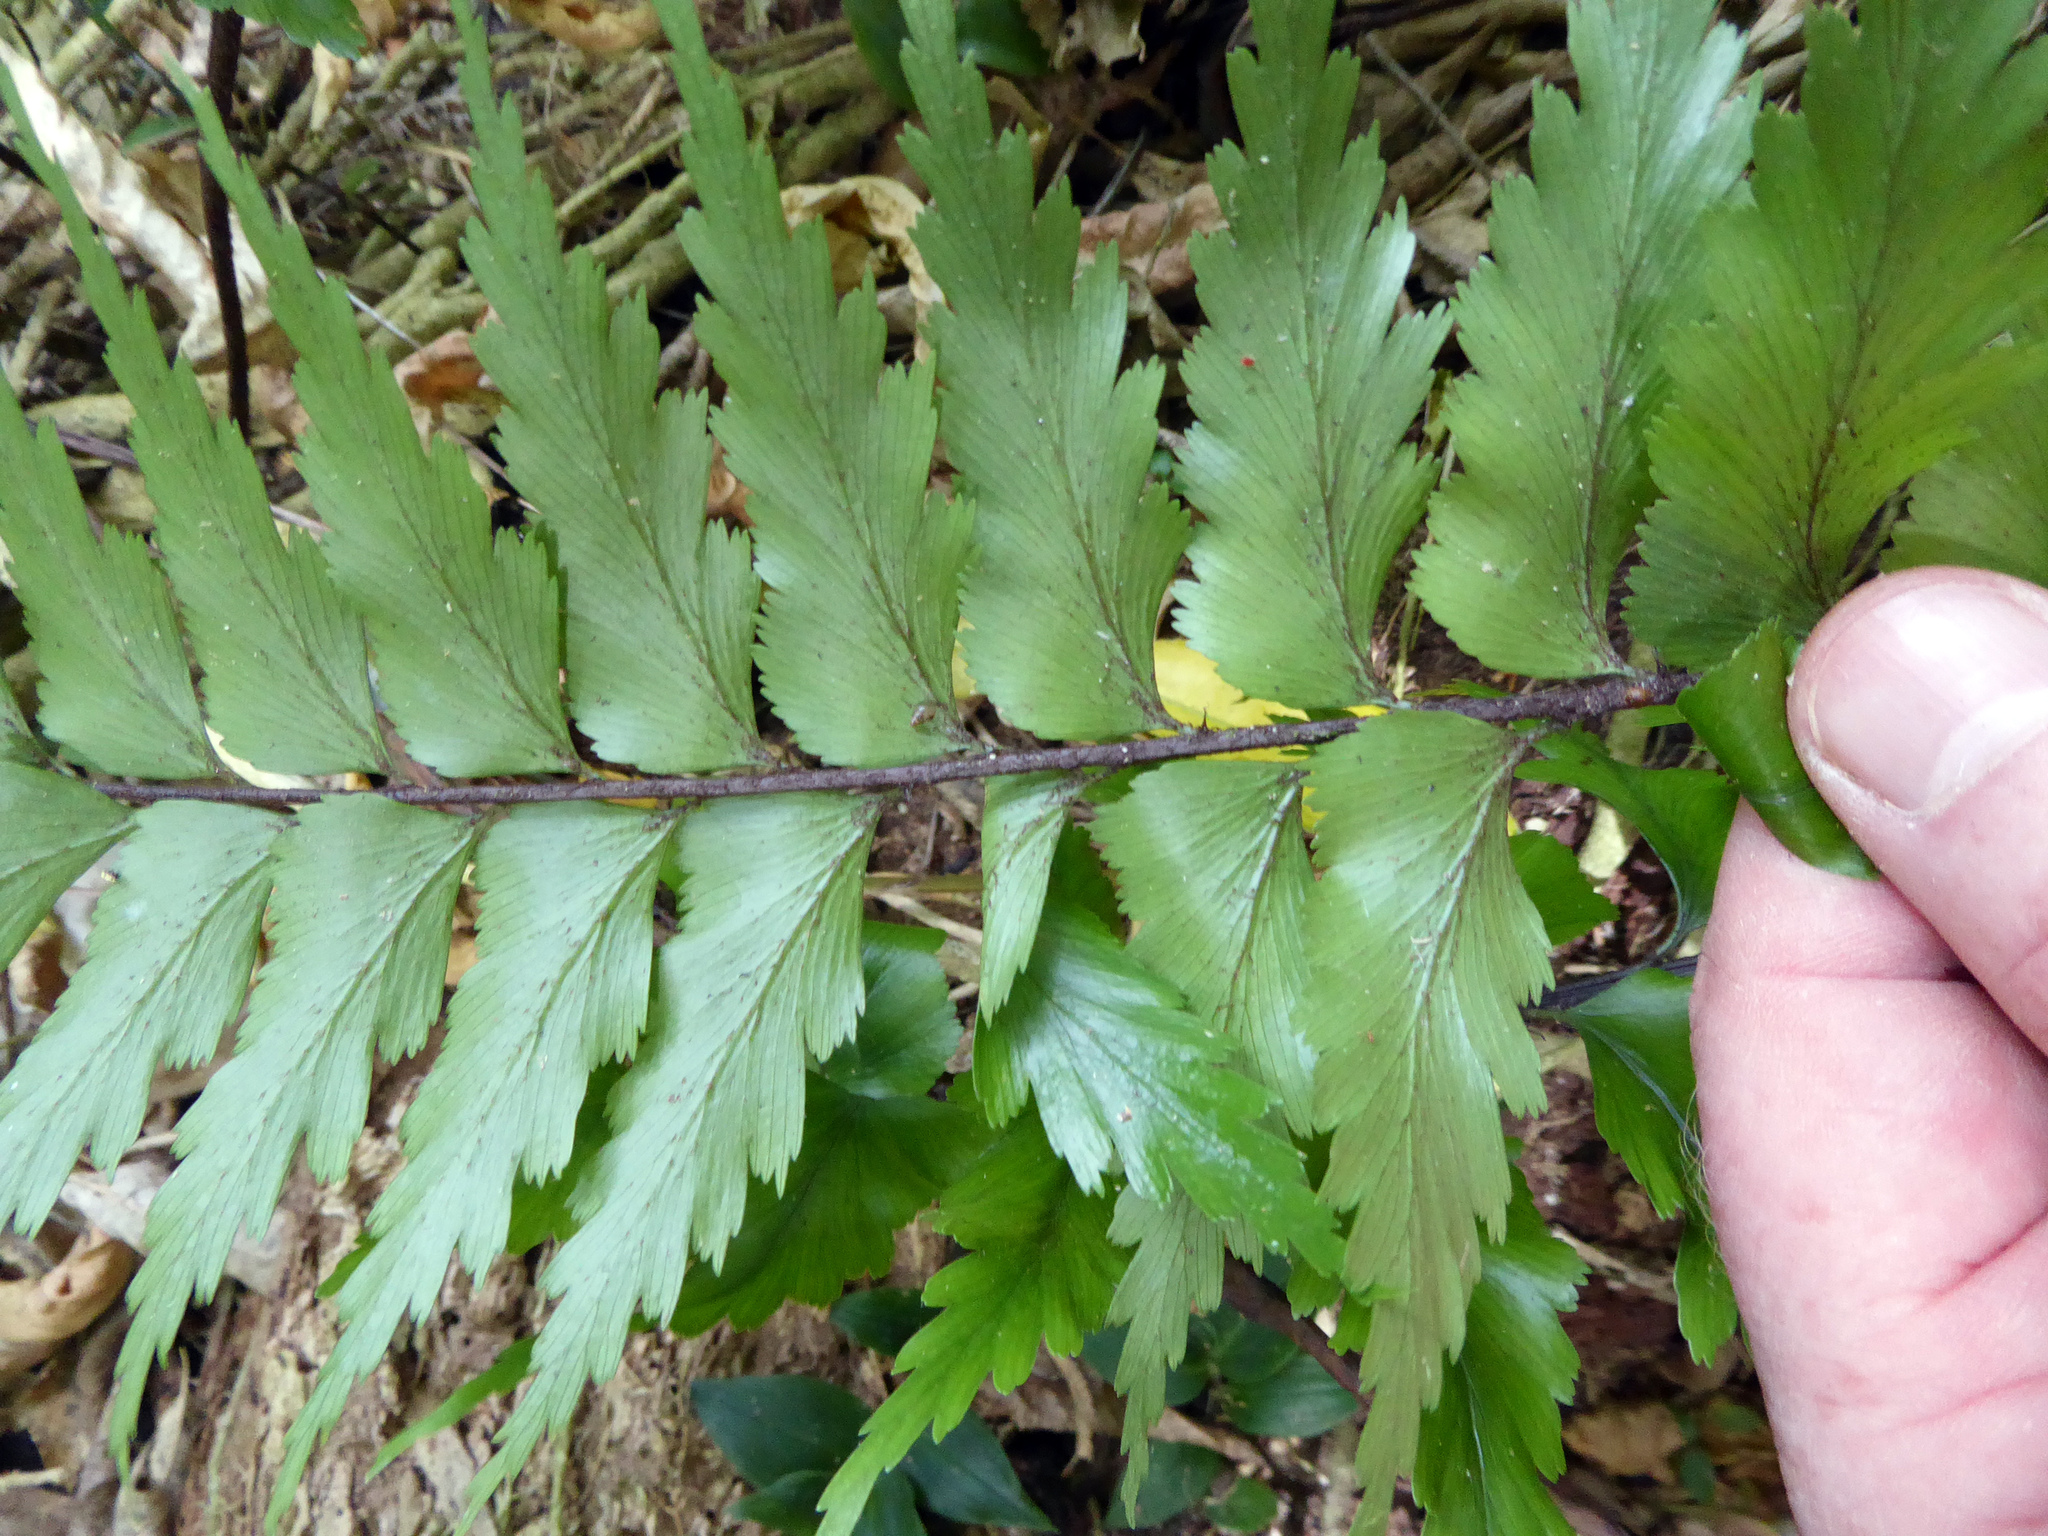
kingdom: Plantae
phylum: Tracheophyta
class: Polypodiopsida
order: Polypodiales
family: Aspleniaceae
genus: Asplenium
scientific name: Asplenium polyodon
